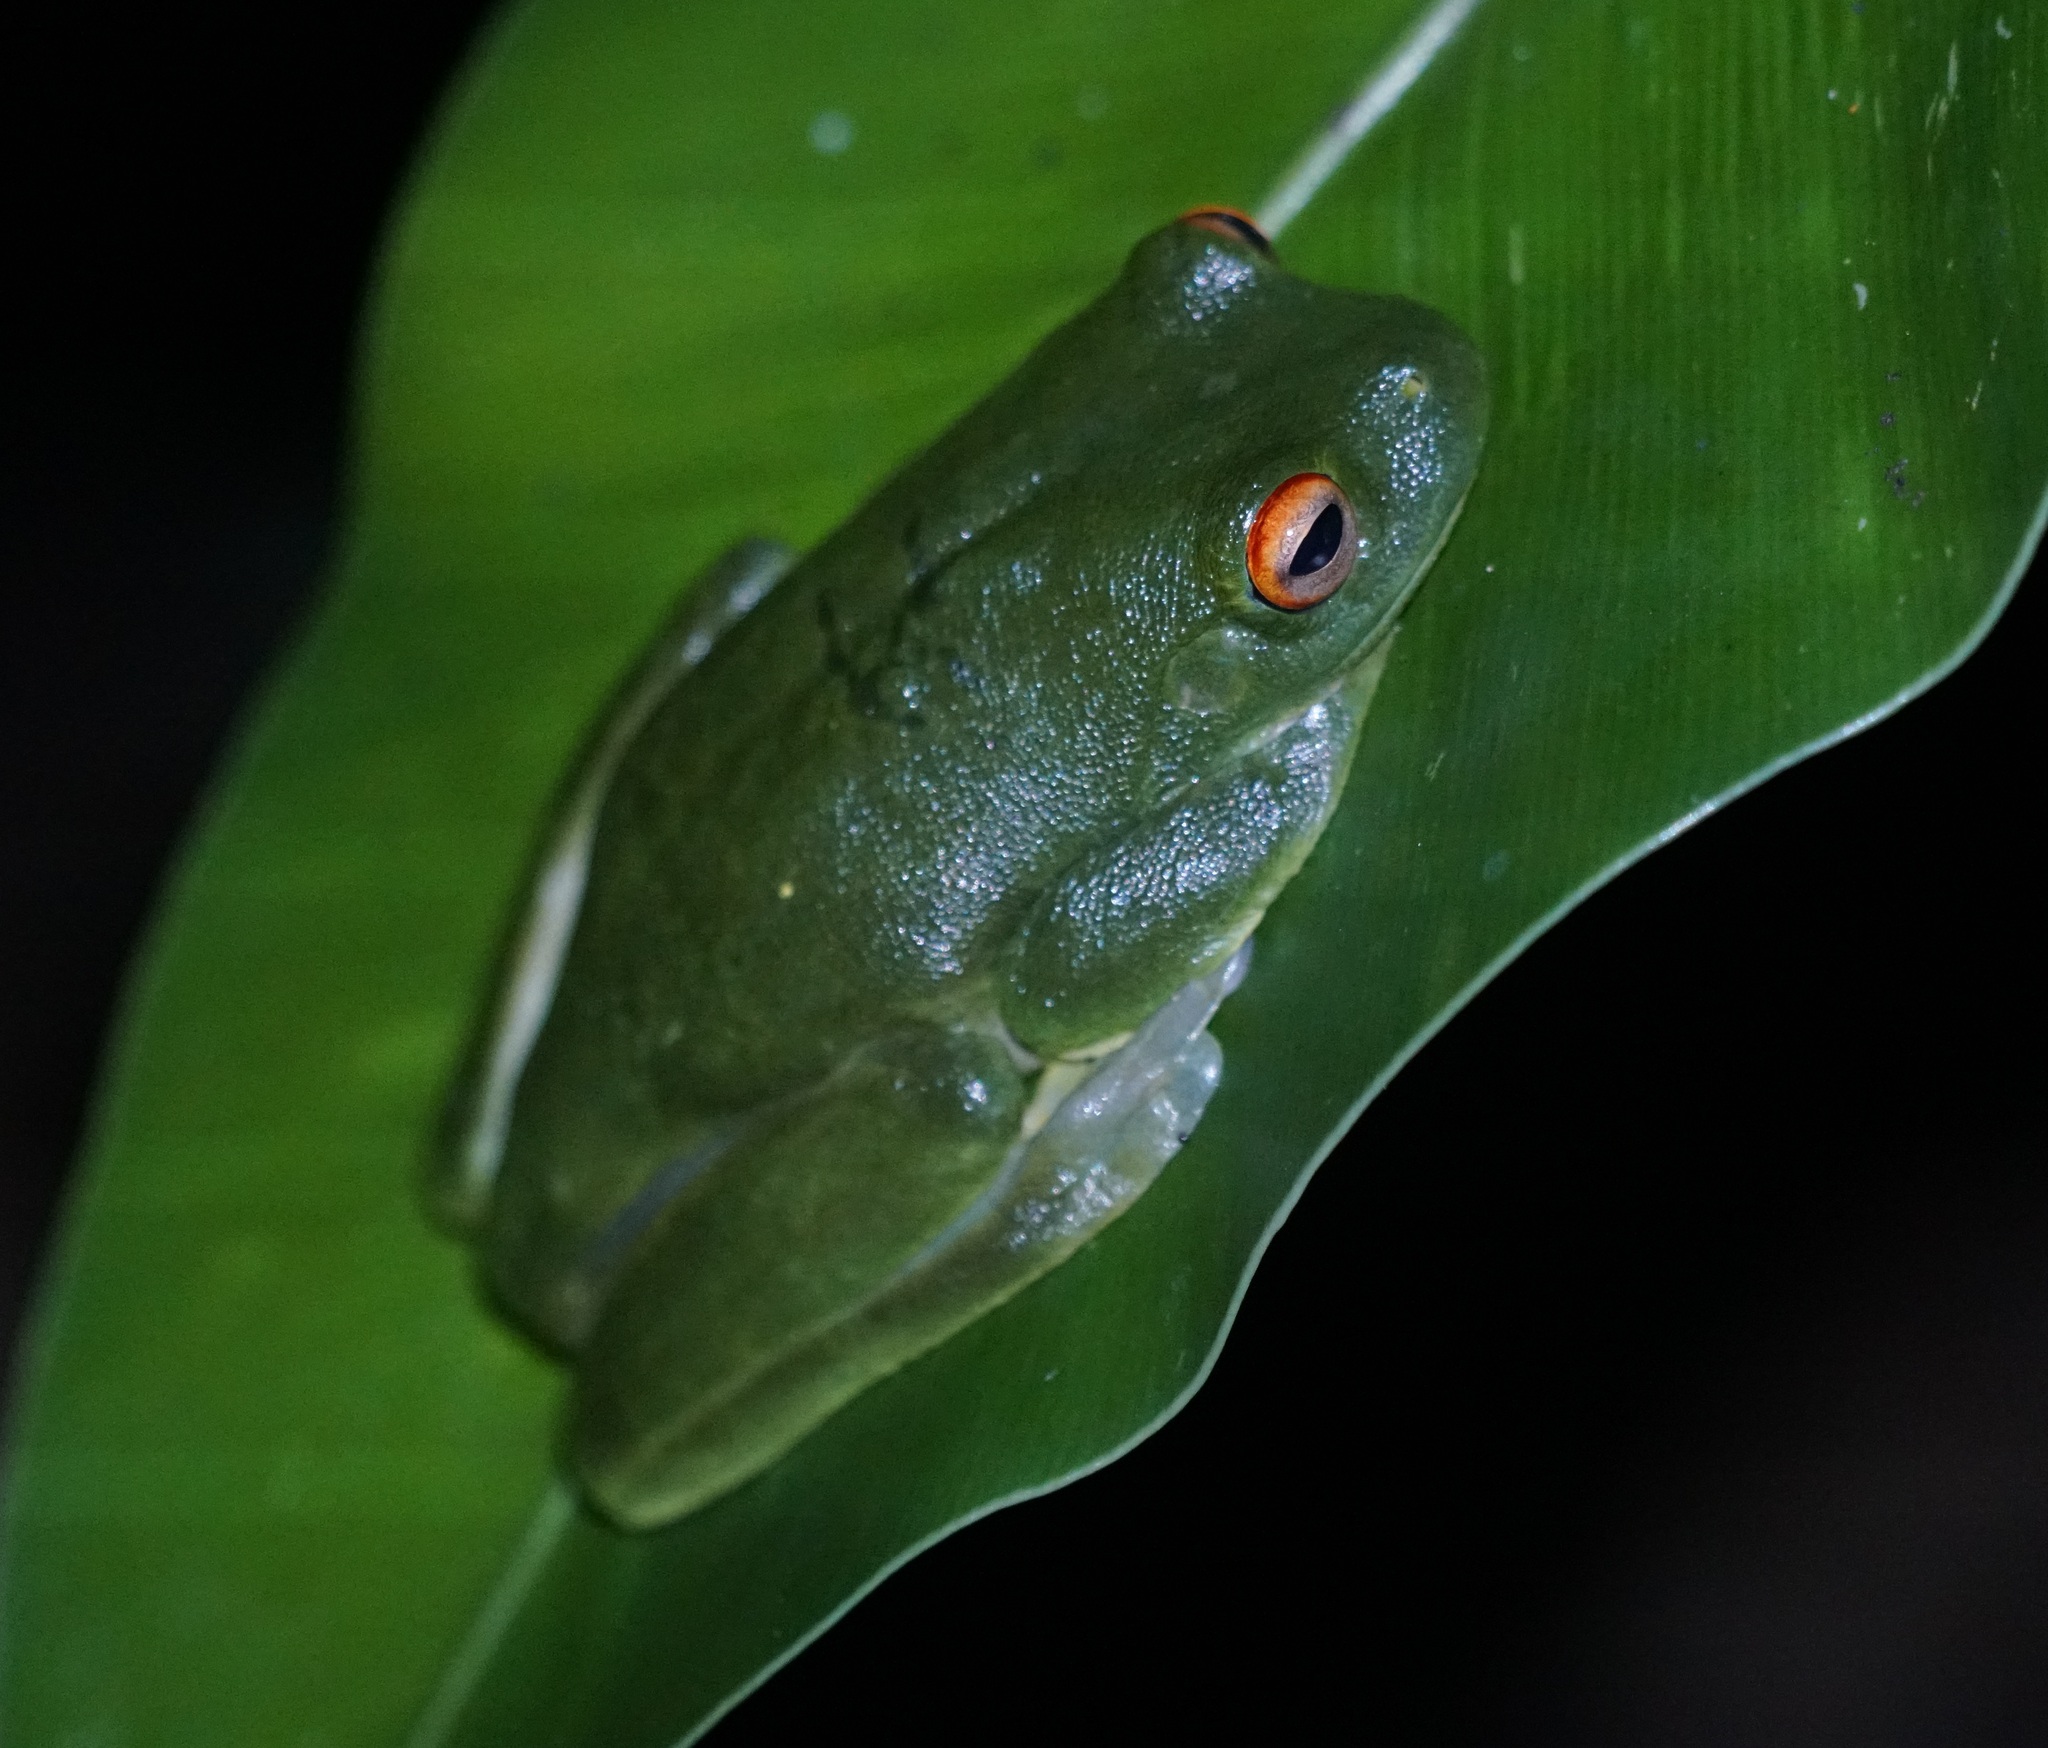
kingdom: Animalia
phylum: Chordata
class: Amphibia
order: Anura
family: Pelodryadidae
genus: Ranoidea
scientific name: Ranoidea chloris
